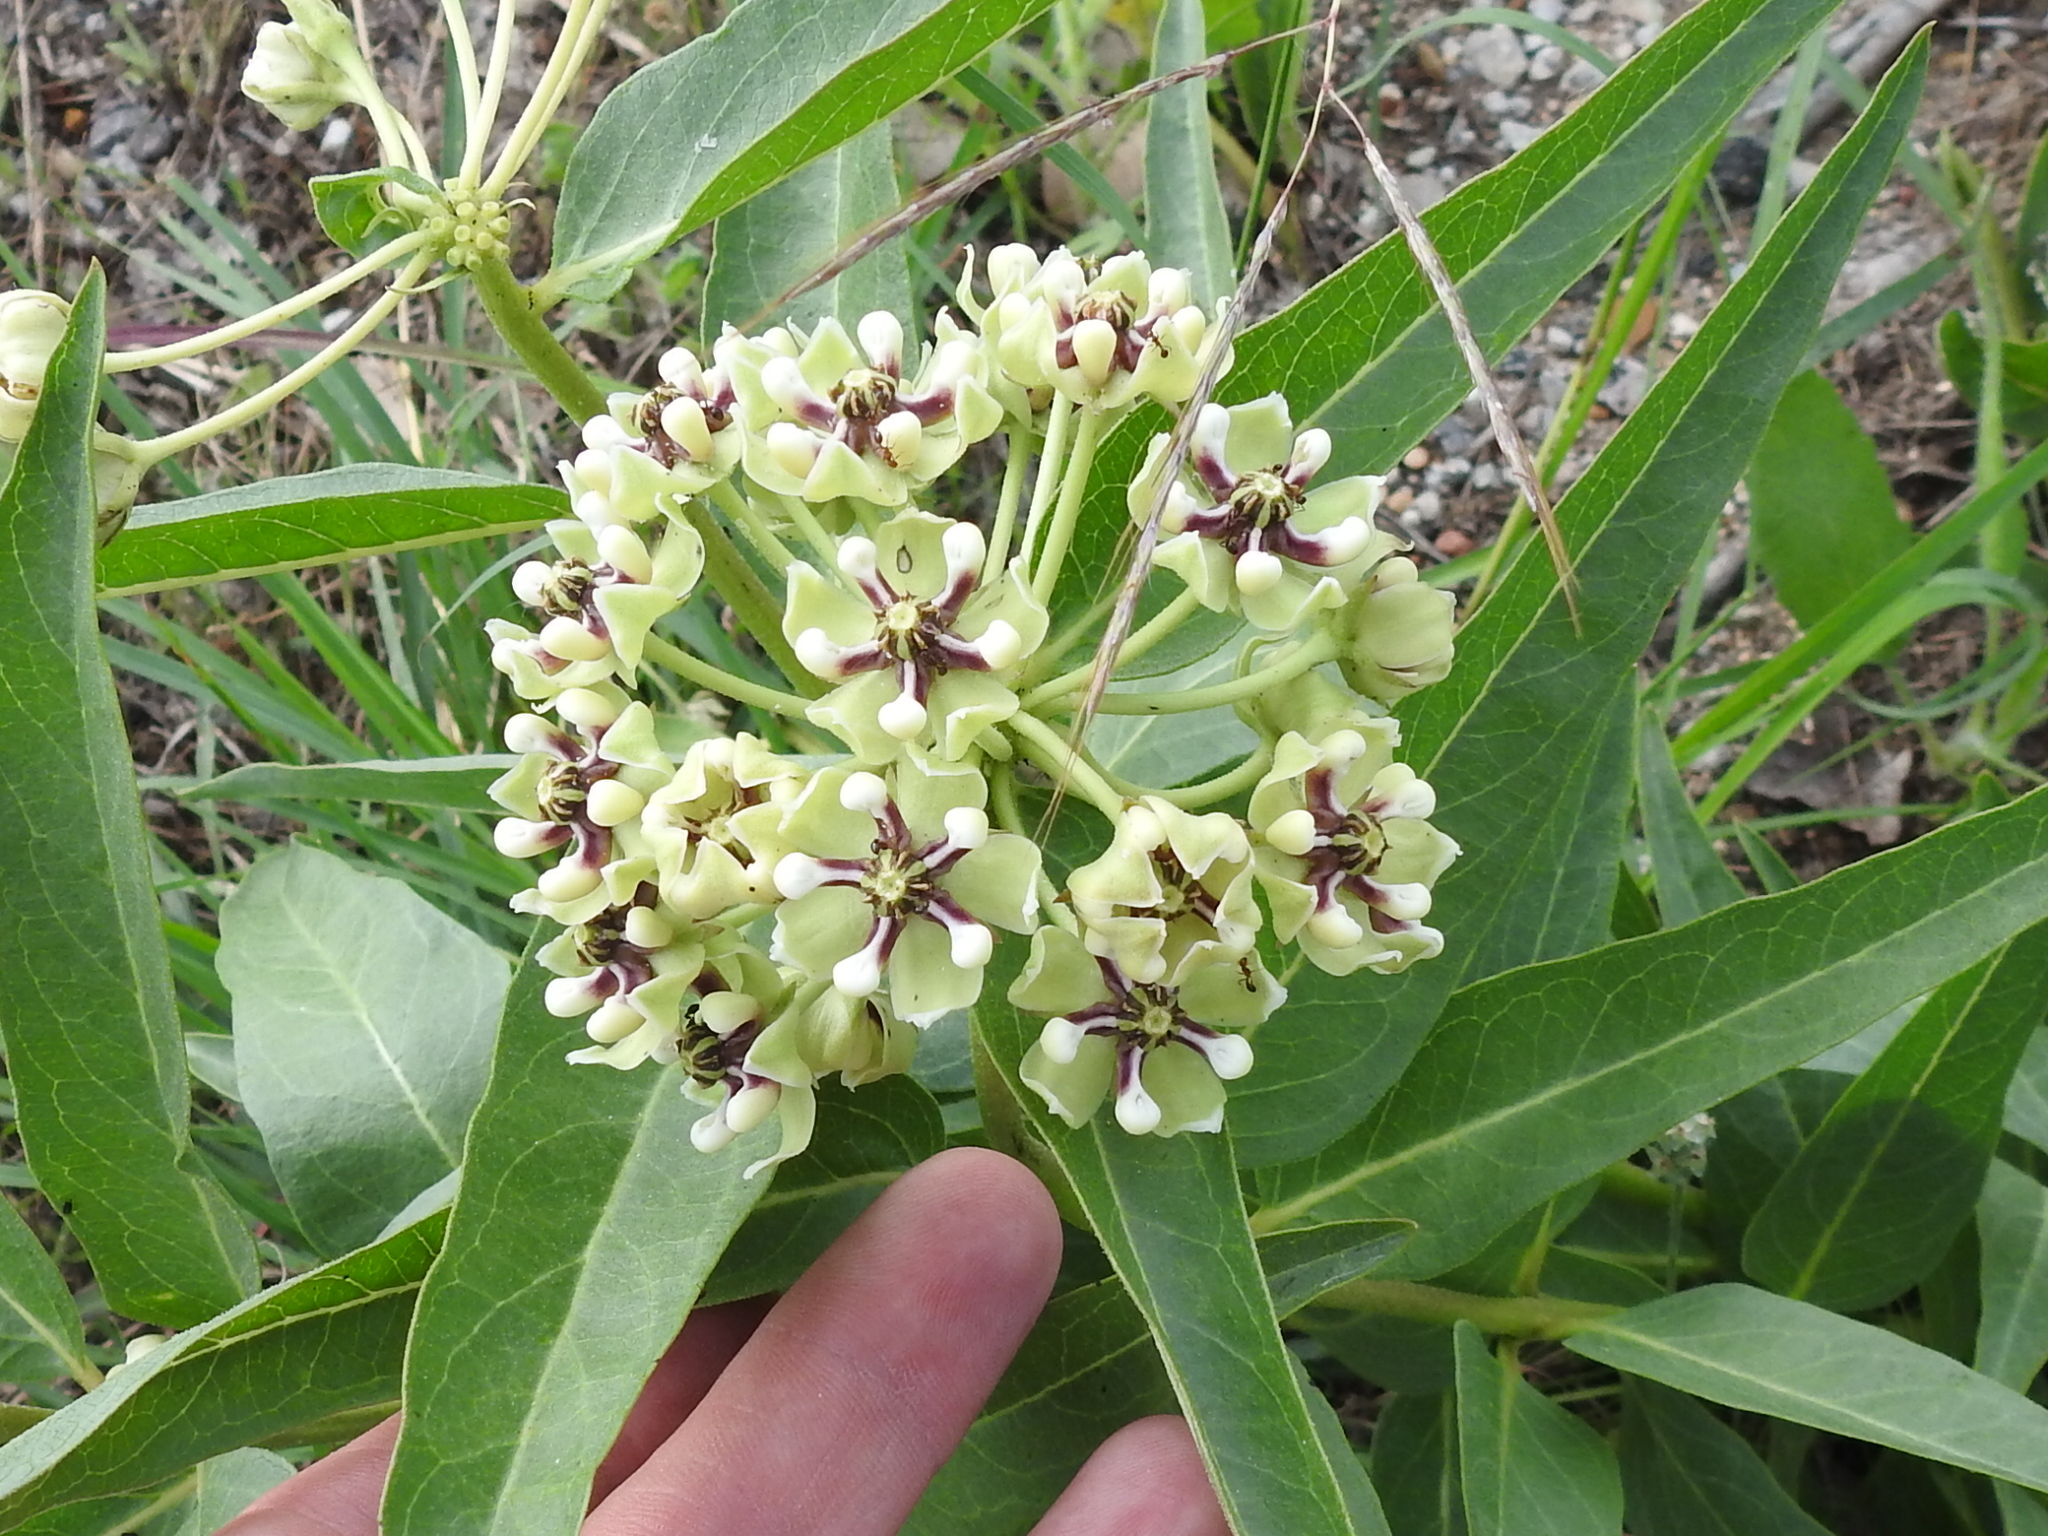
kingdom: Plantae
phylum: Tracheophyta
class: Magnoliopsida
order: Gentianales
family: Apocynaceae
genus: Asclepias
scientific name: Asclepias asperula
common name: Antelope horns
